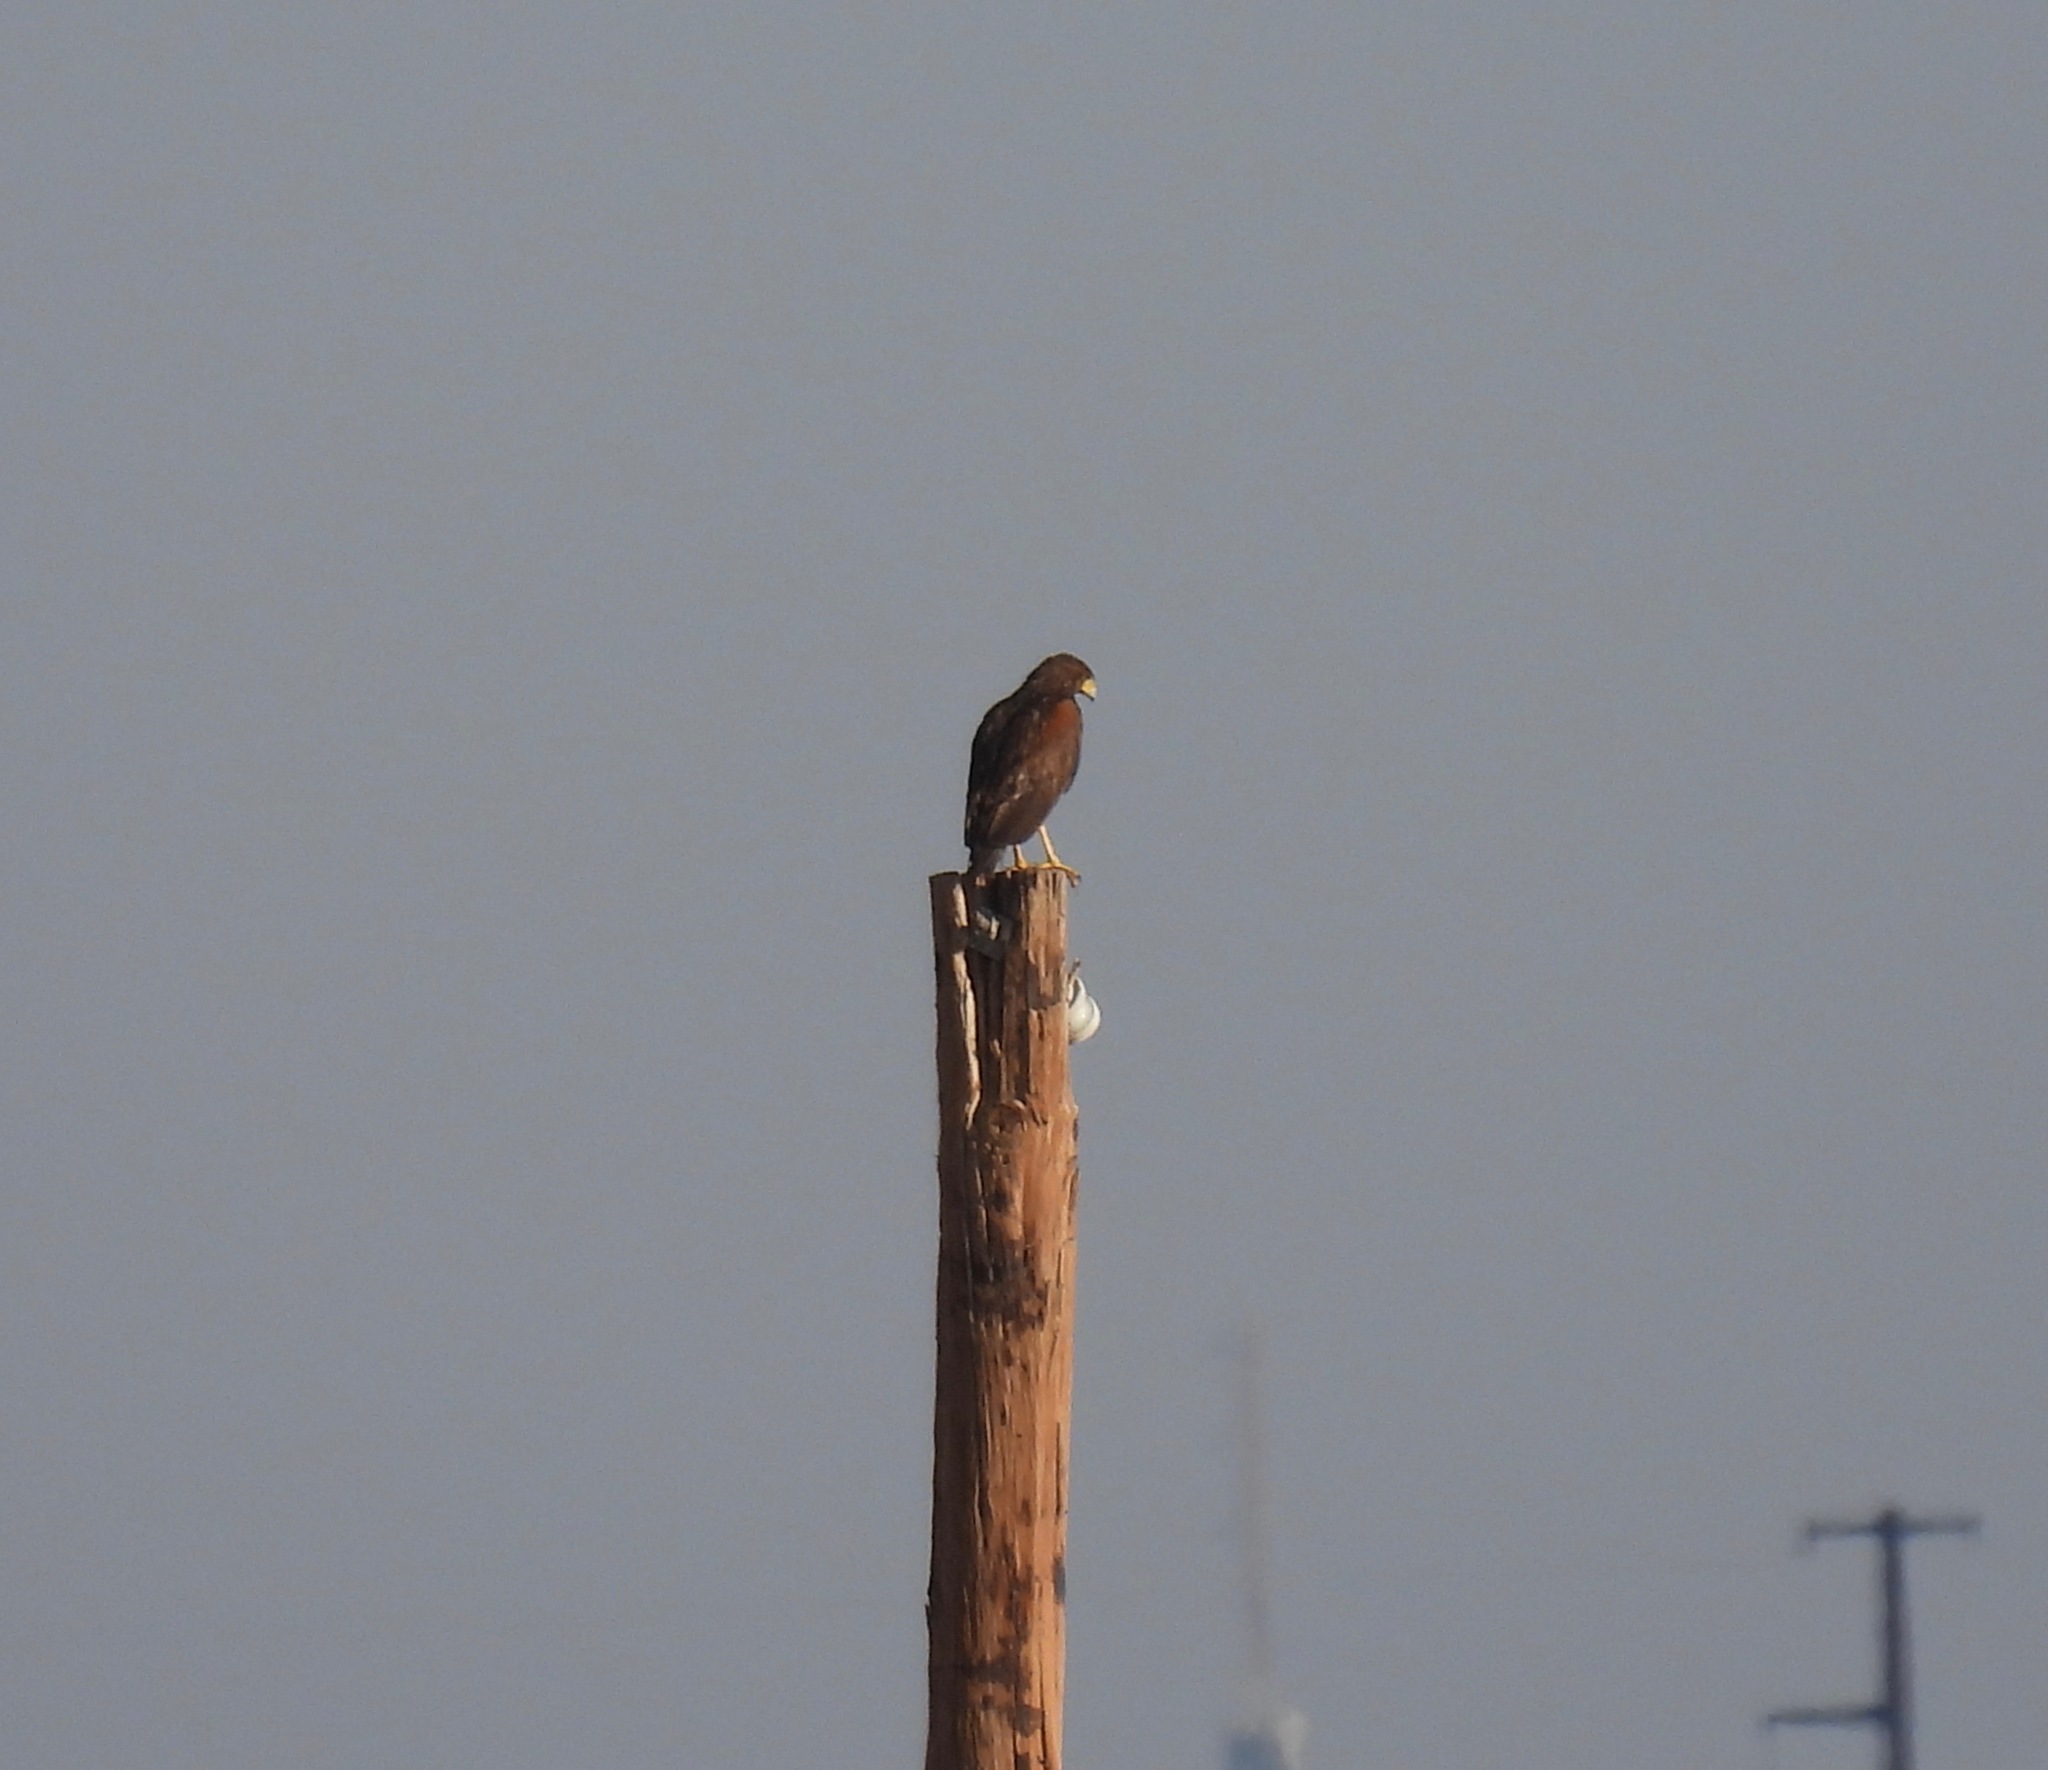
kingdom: Animalia
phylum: Chordata
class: Aves
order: Accipitriformes
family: Accipitridae
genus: Parabuteo
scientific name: Parabuteo unicinctus
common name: Harris's hawk
